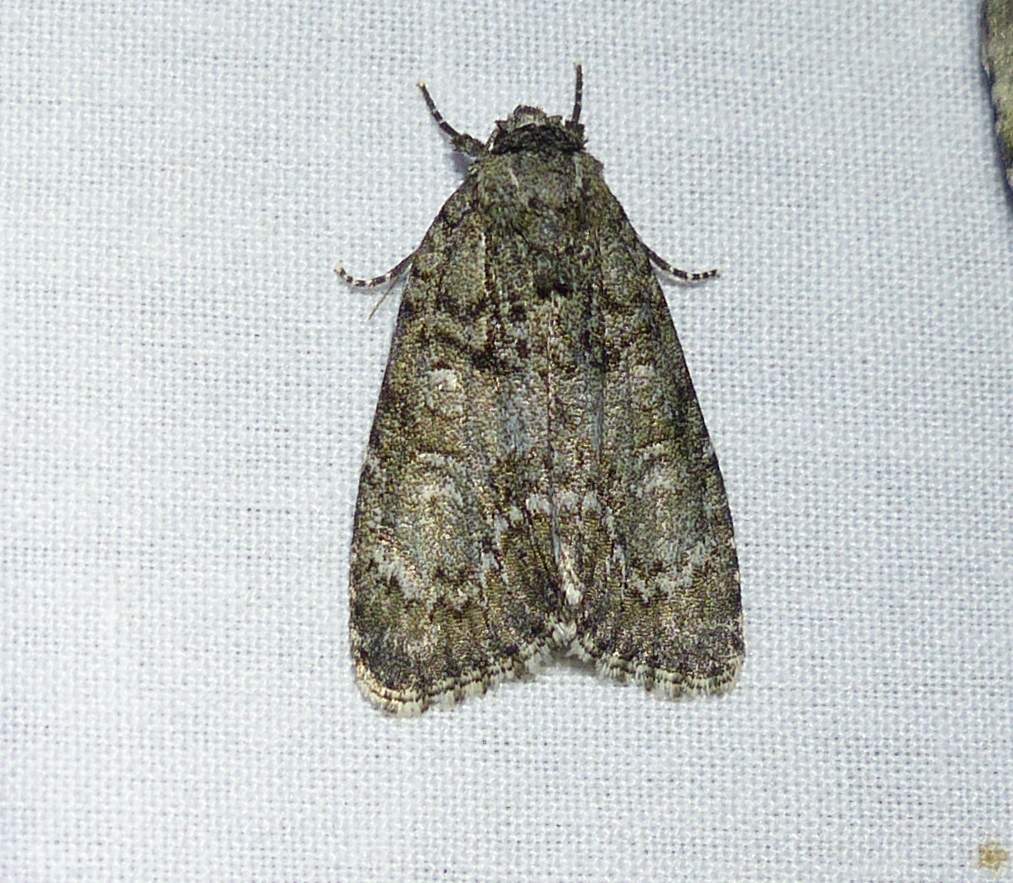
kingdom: Animalia
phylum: Arthropoda
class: Insecta
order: Lepidoptera
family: Noctuidae
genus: Acronicta
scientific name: Acronicta retardata
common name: Maple dagger
